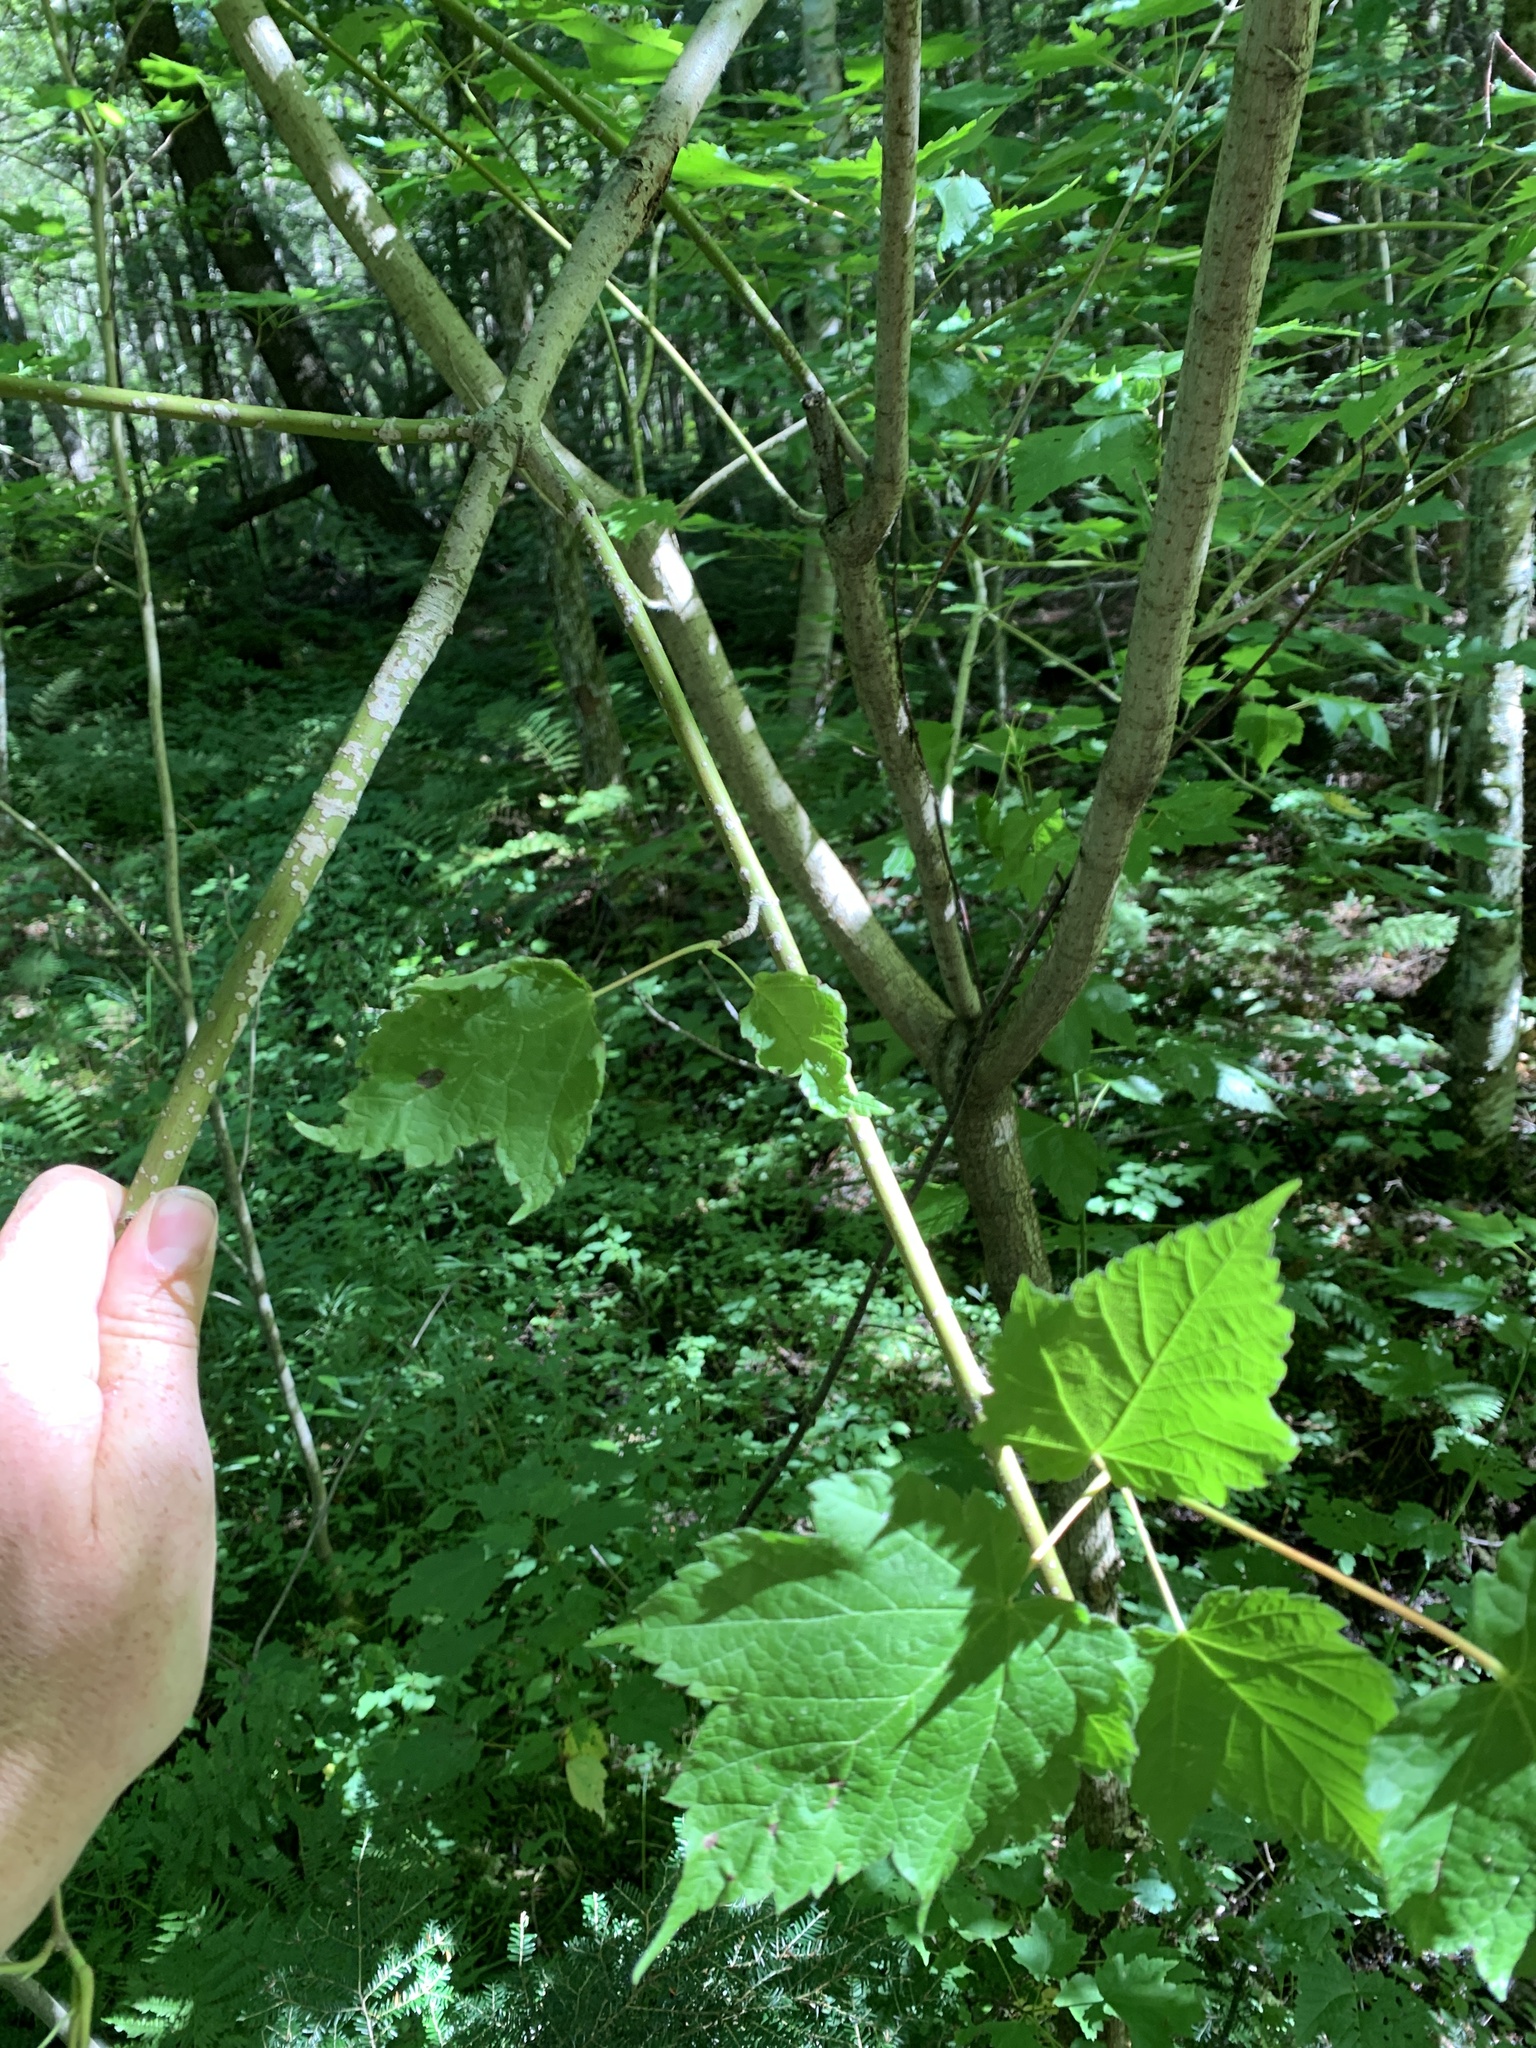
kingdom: Plantae
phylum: Tracheophyta
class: Magnoliopsida
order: Sapindales
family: Sapindaceae
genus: Acer
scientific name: Acer spicatum
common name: Mountain maple
